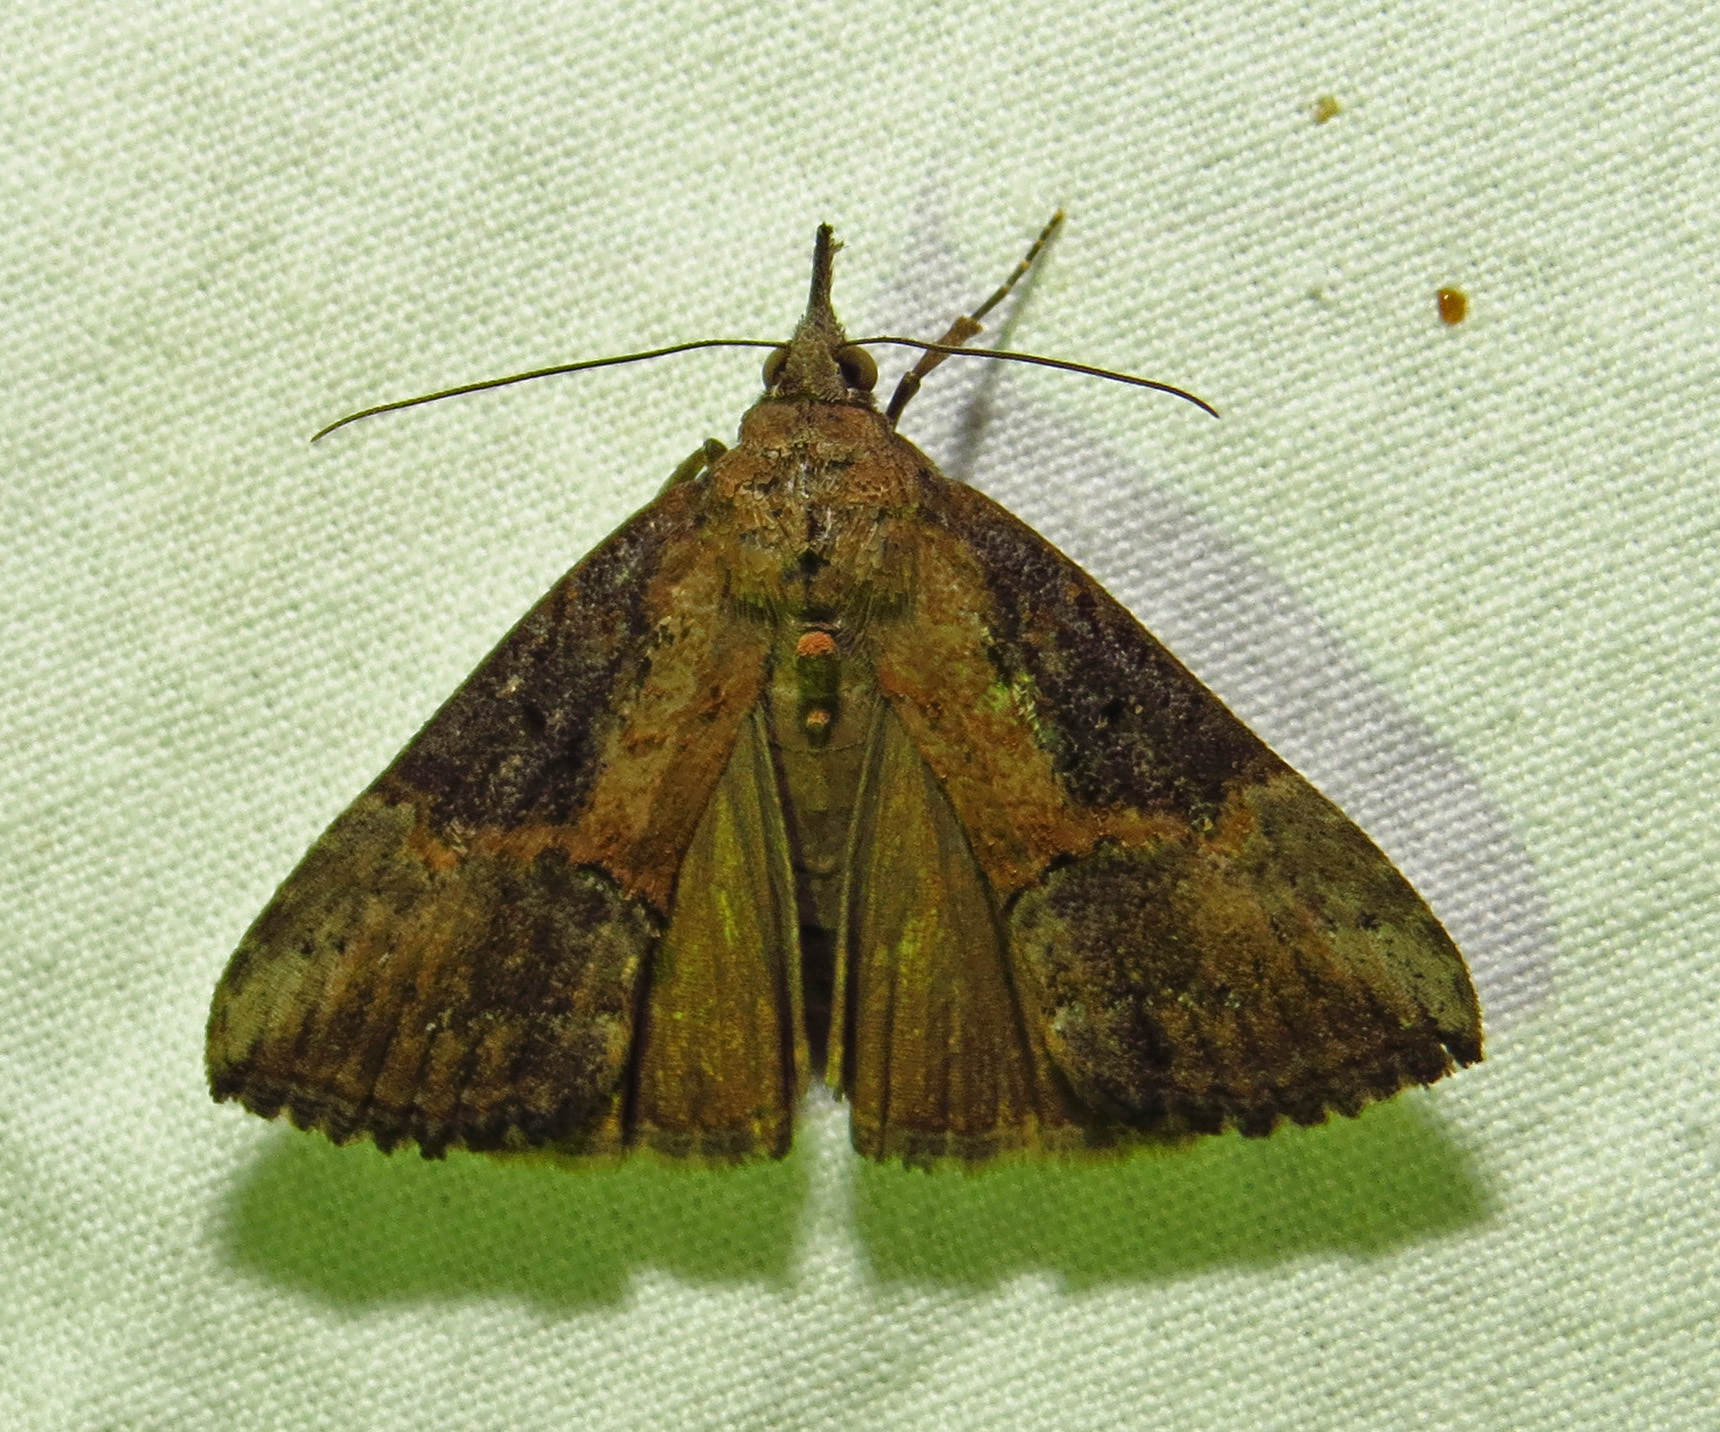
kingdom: Animalia
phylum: Arthropoda
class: Insecta
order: Lepidoptera
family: Erebidae
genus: Hypena
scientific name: Hypena scabra
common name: Green cloverworm
